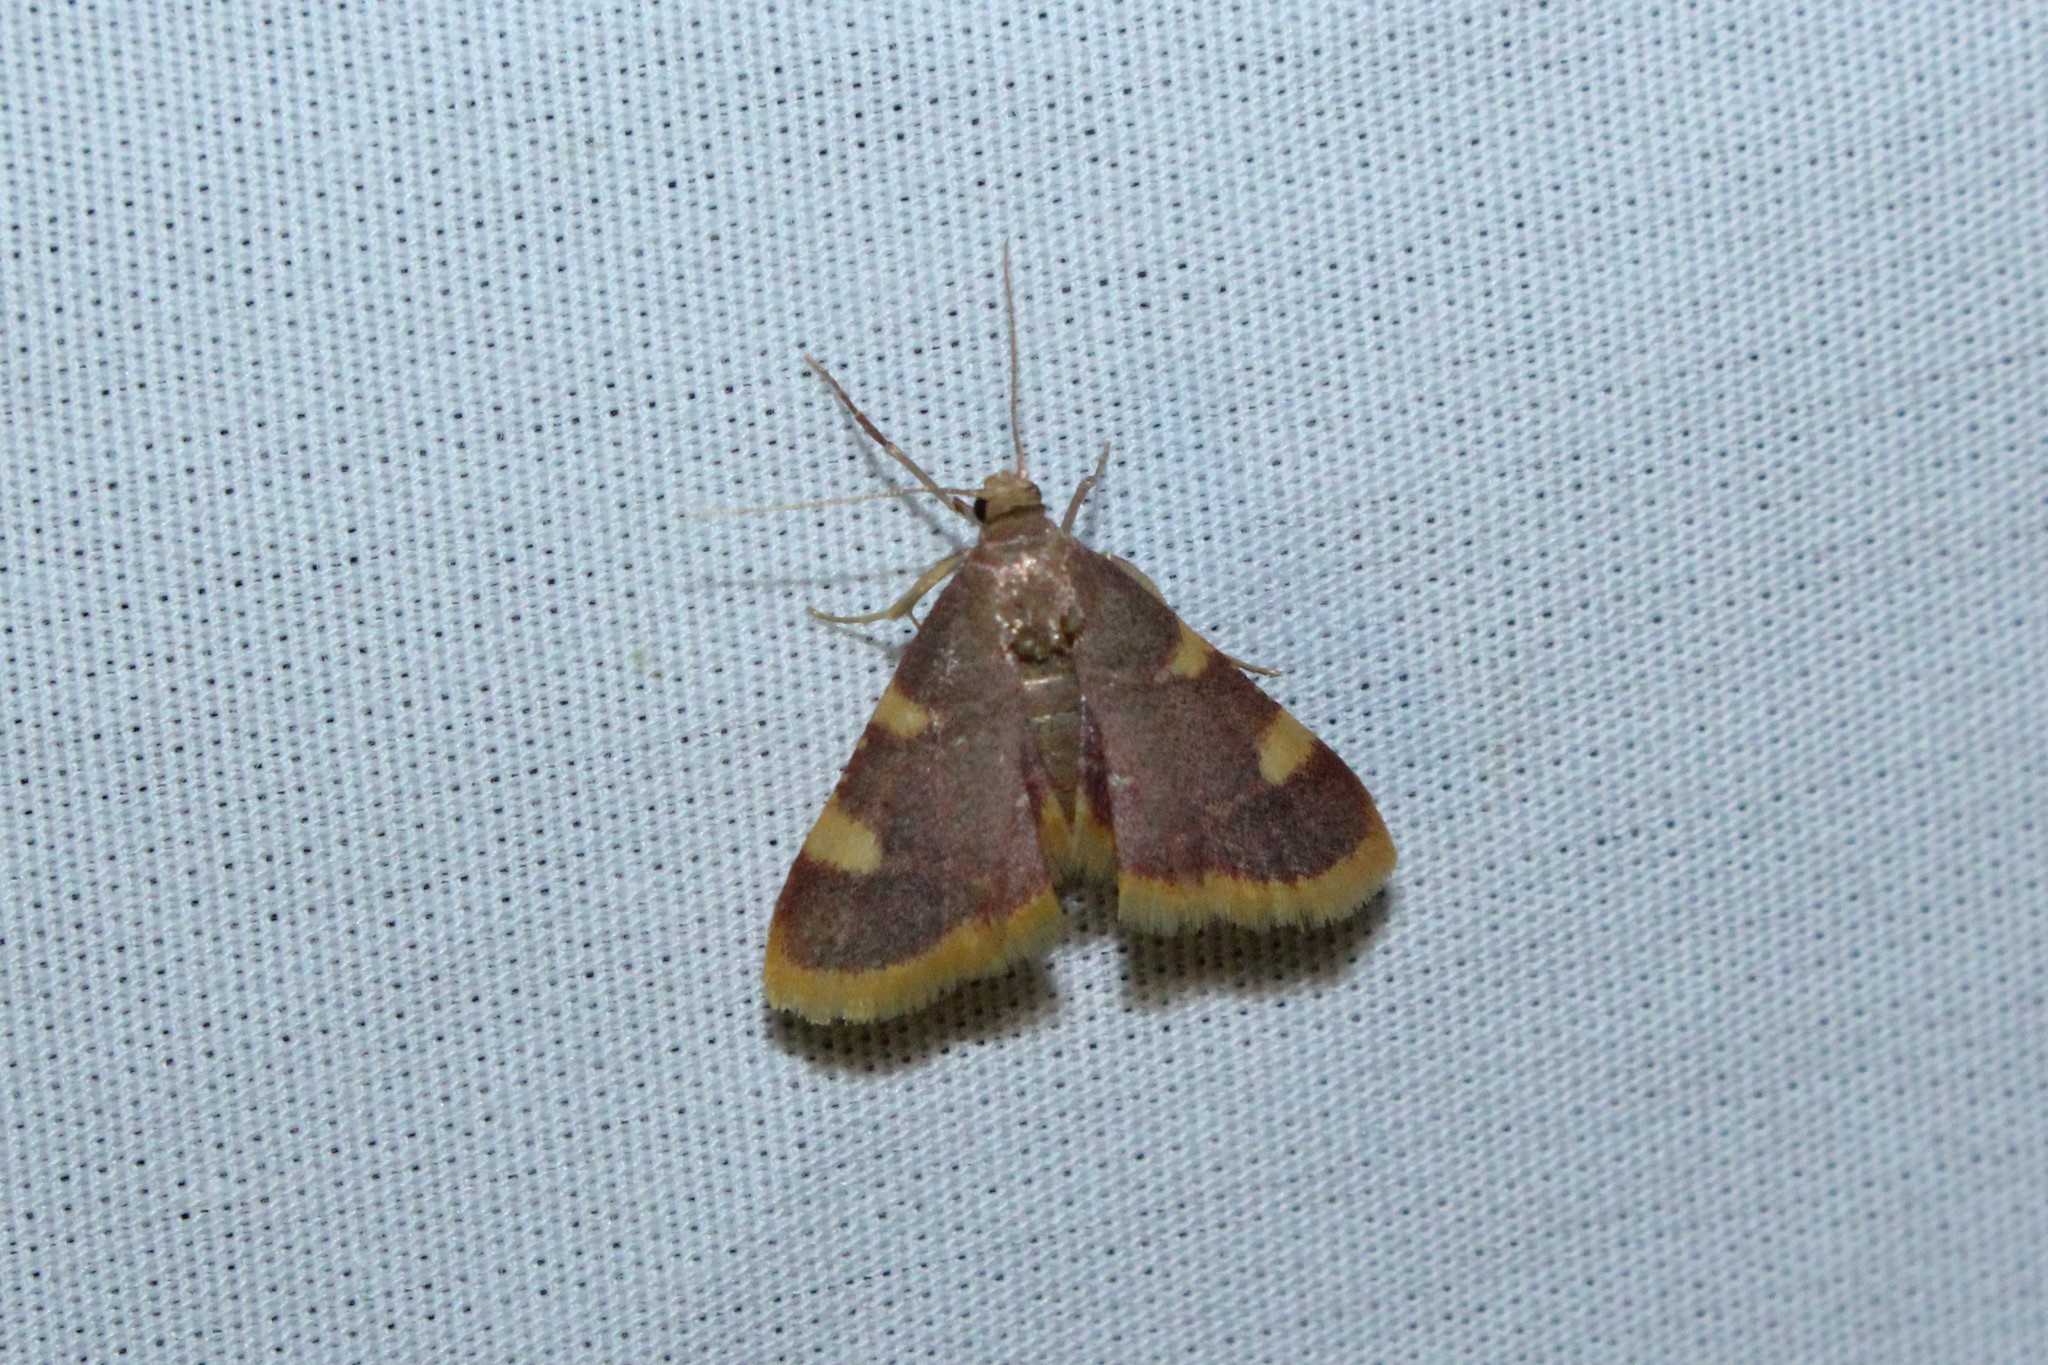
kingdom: Animalia
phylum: Arthropoda
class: Insecta
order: Lepidoptera
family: Pyralidae
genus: Hypsopygia
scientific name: Hypsopygia costalis
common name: Gold triangle
